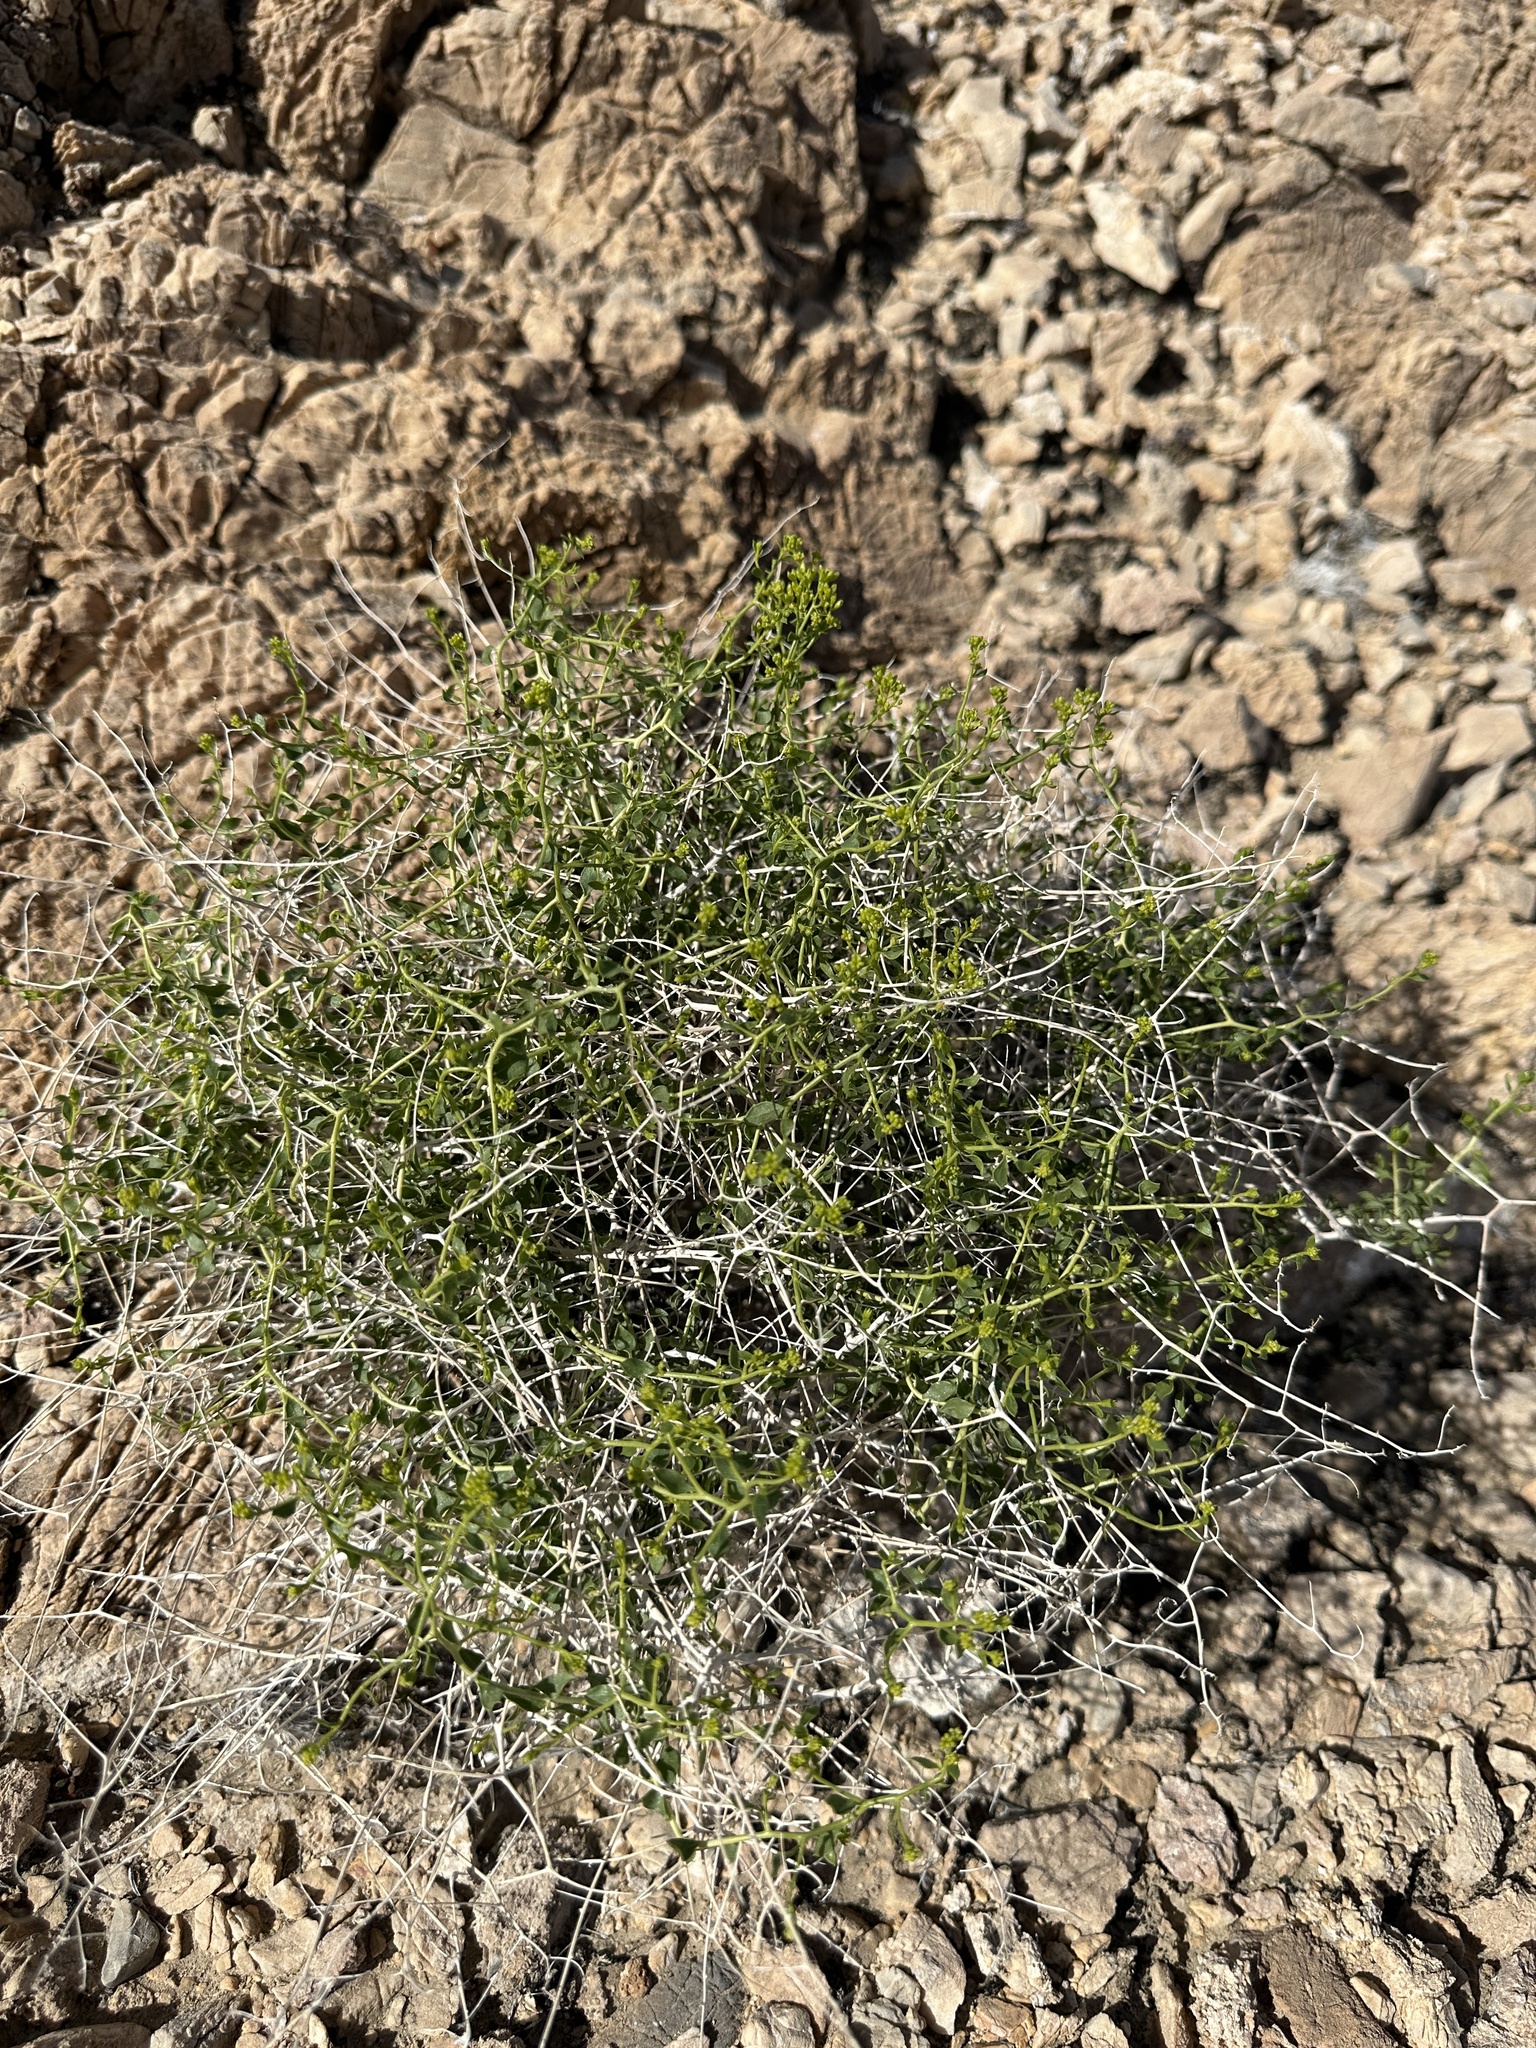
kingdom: Plantae
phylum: Tracheophyta
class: Magnoliopsida
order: Asterales
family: Asteraceae
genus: Amphipappus
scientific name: Amphipappus fremontii
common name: Fremont's chaffbush
